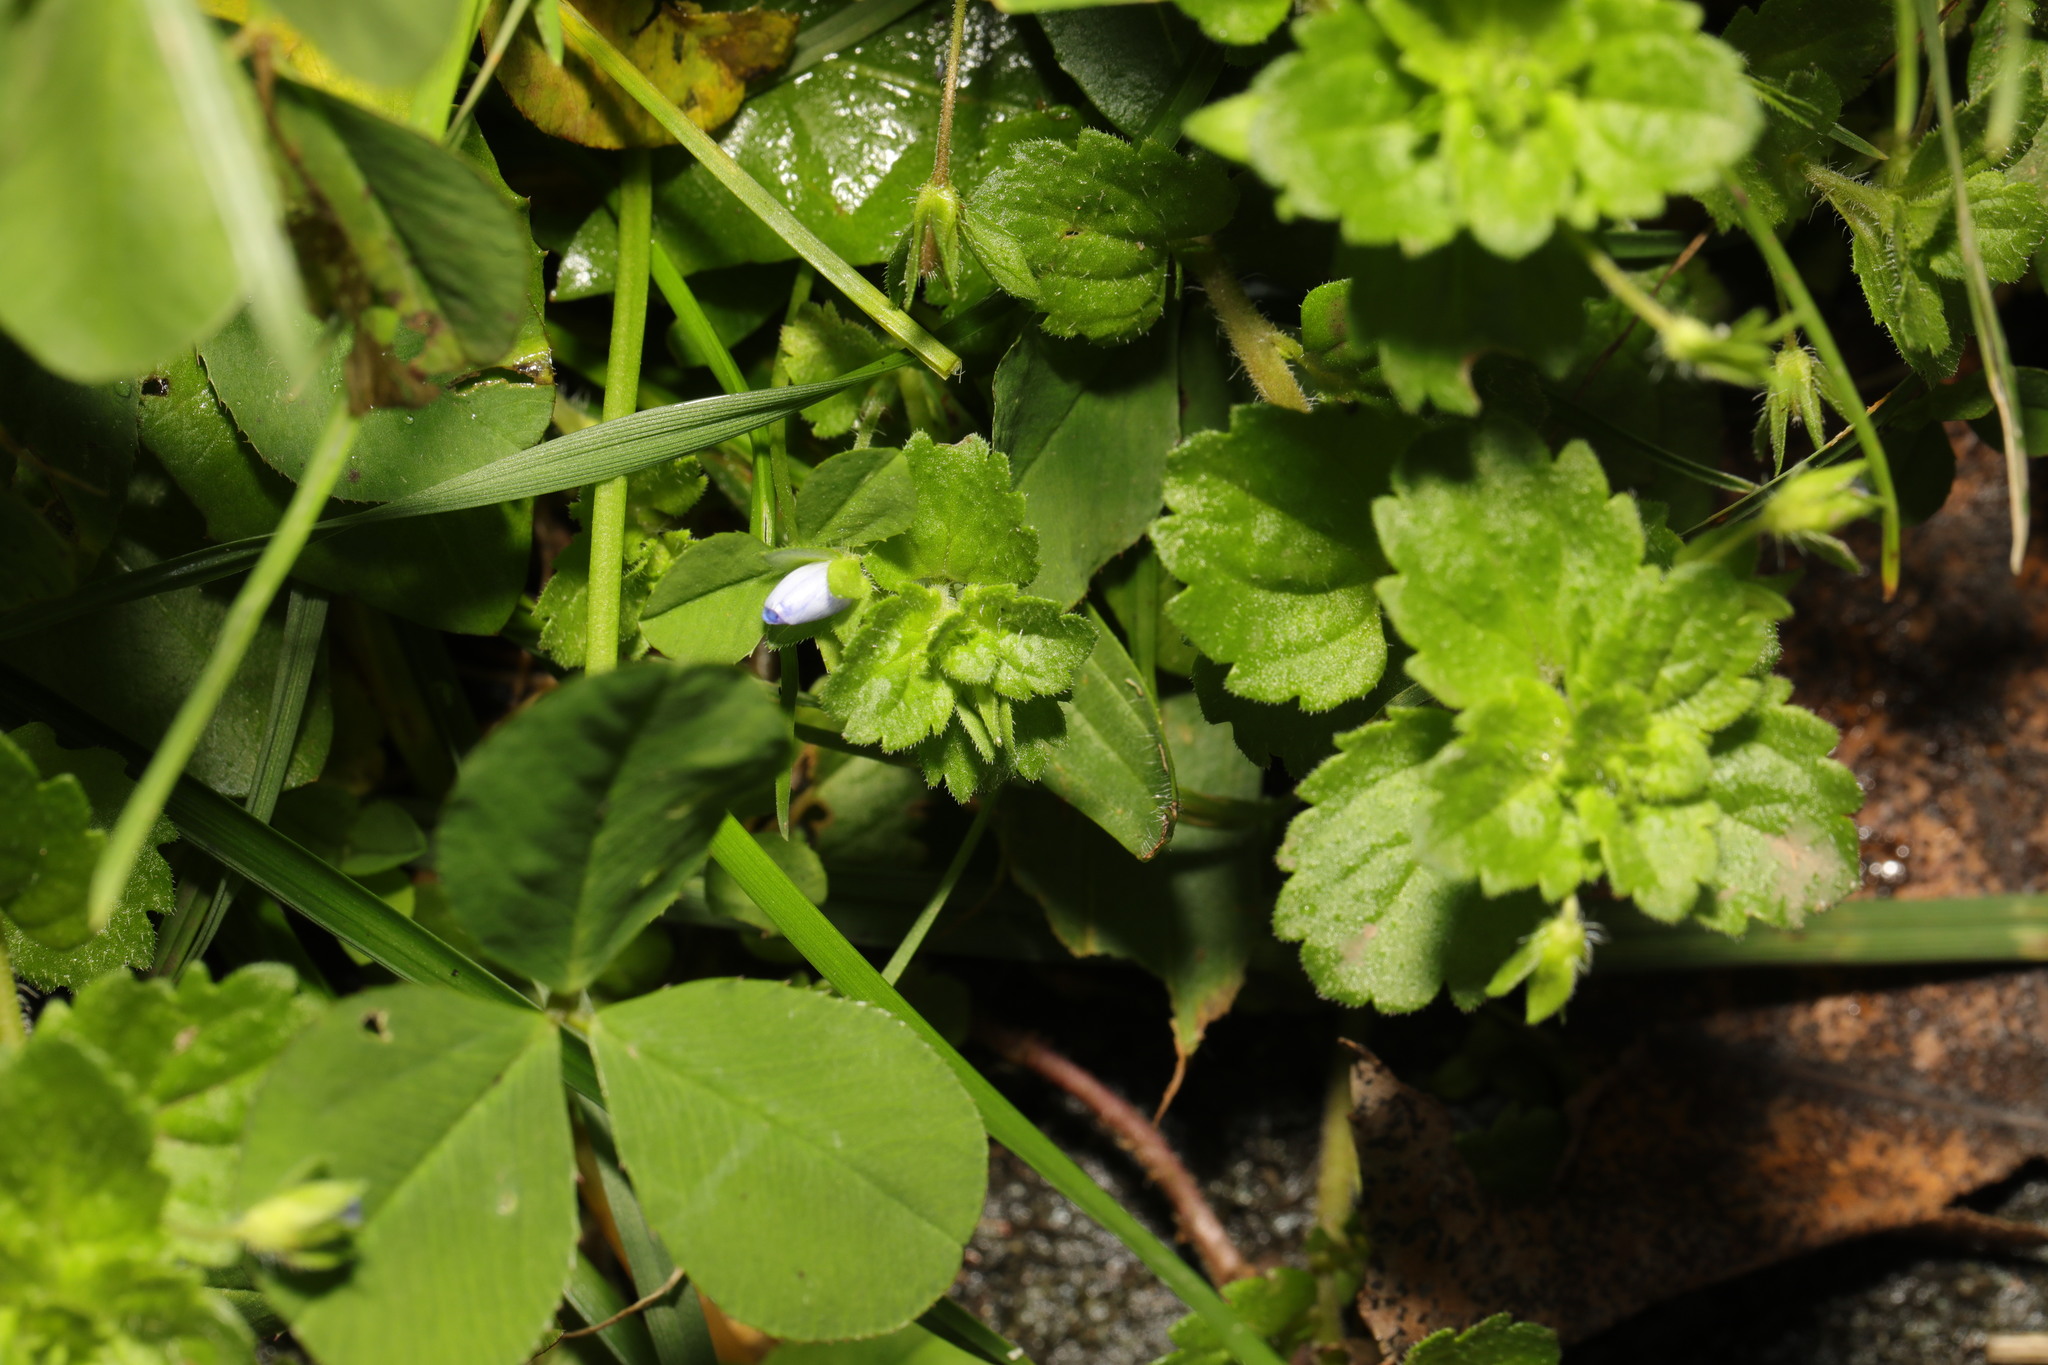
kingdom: Plantae
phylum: Tracheophyta
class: Magnoliopsida
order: Lamiales
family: Plantaginaceae
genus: Veronica
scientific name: Veronica persica
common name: Common field-speedwell
